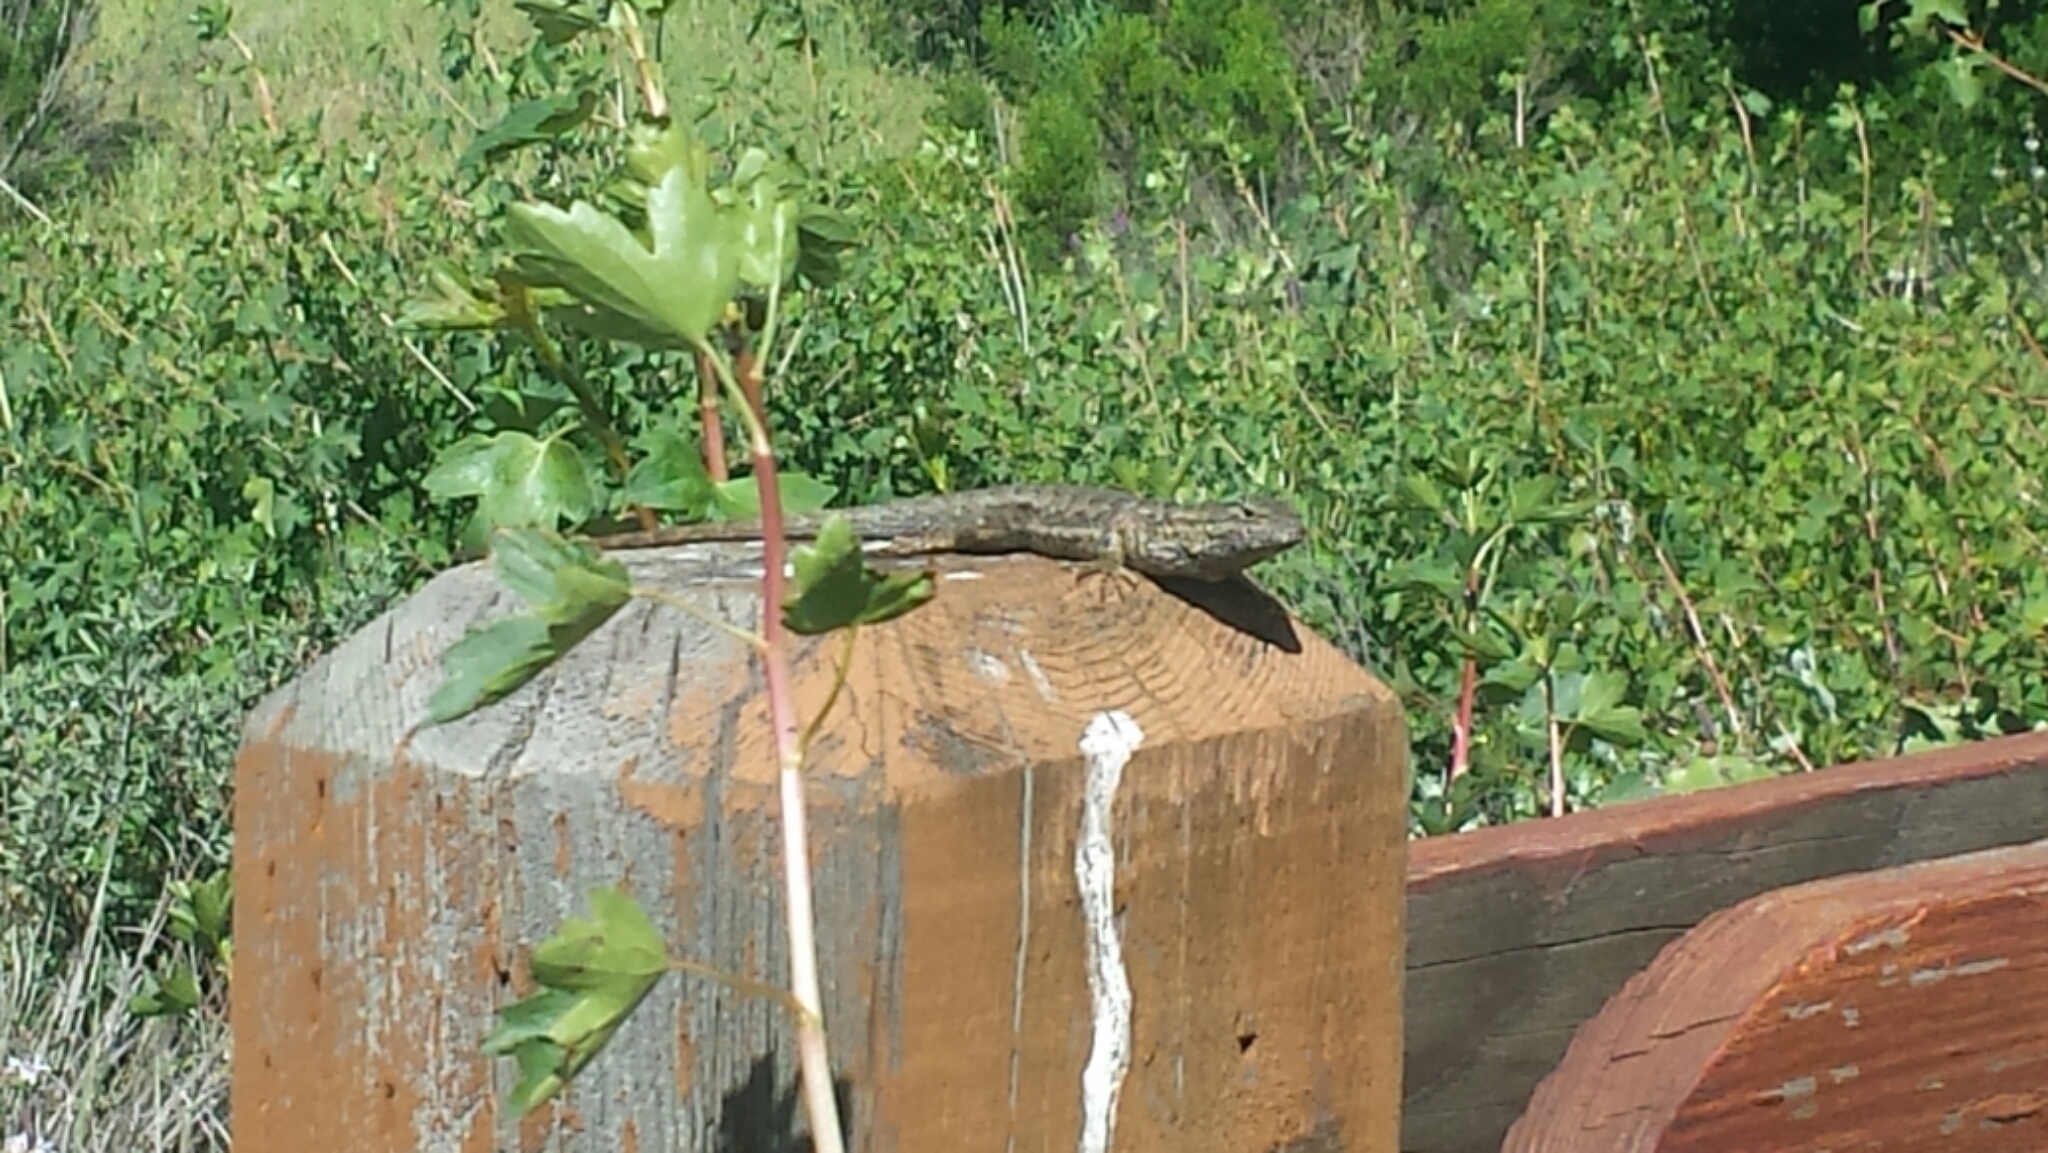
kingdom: Animalia
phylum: Chordata
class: Squamata
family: Phrynosomatidae
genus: Sceloporus
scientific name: Sceloporus occidentalis
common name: Western fence lizard
